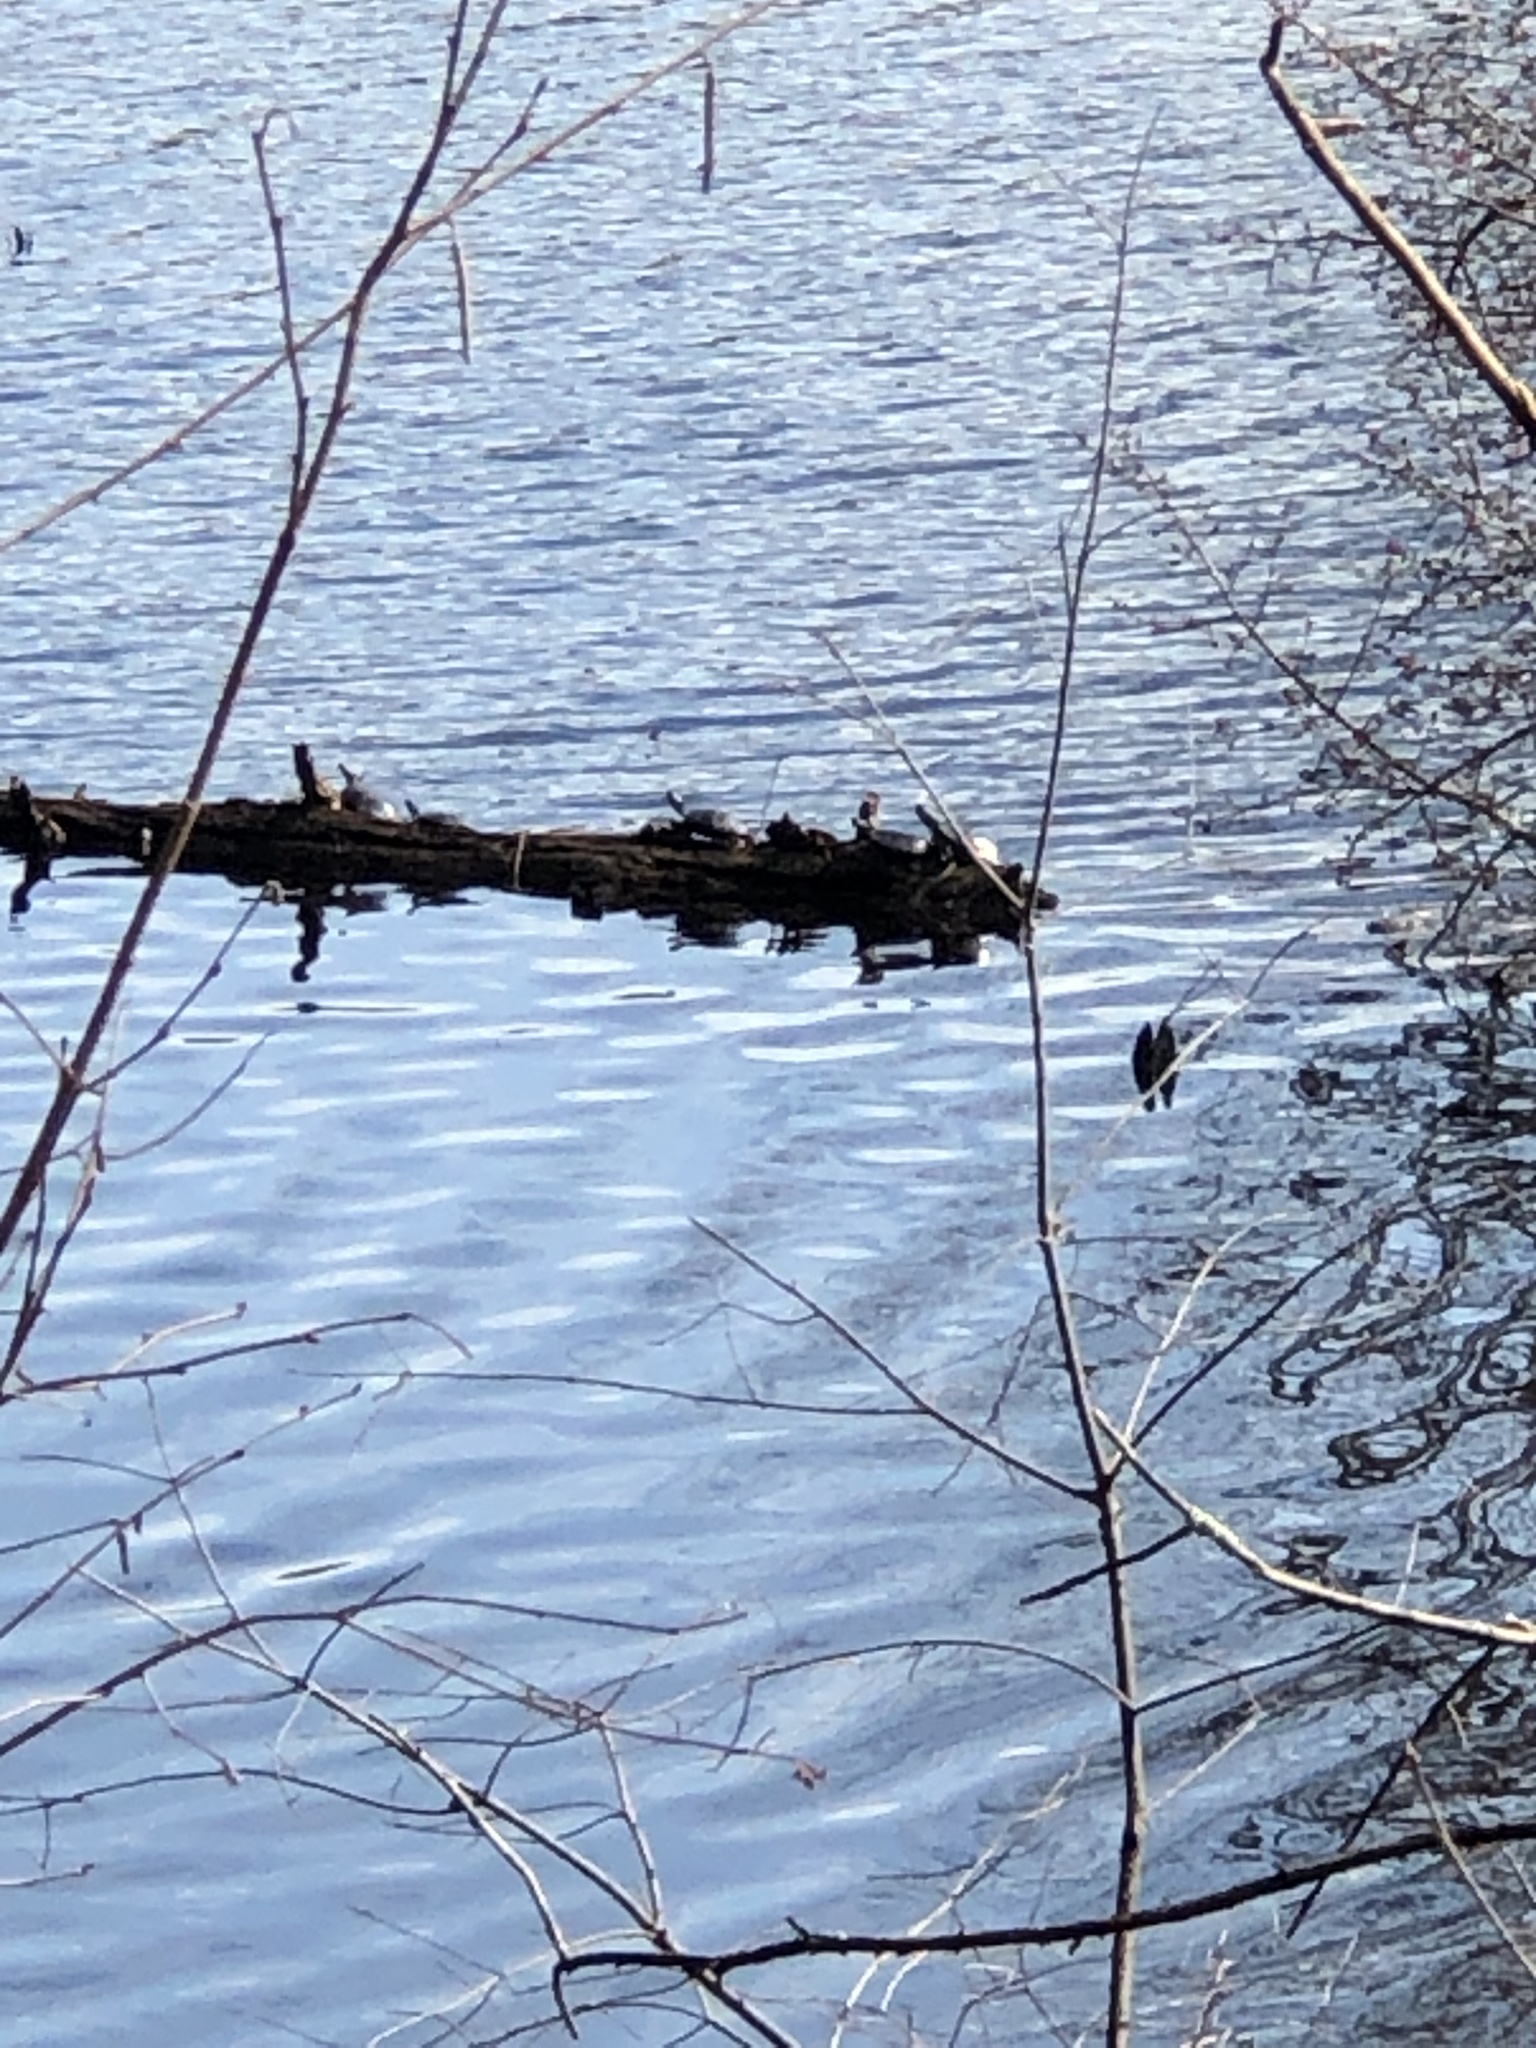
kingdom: Animalia
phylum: Chordata
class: Testudines
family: Emydidae
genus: Chrysemys
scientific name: Chrysemys picta
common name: Painted turtle
